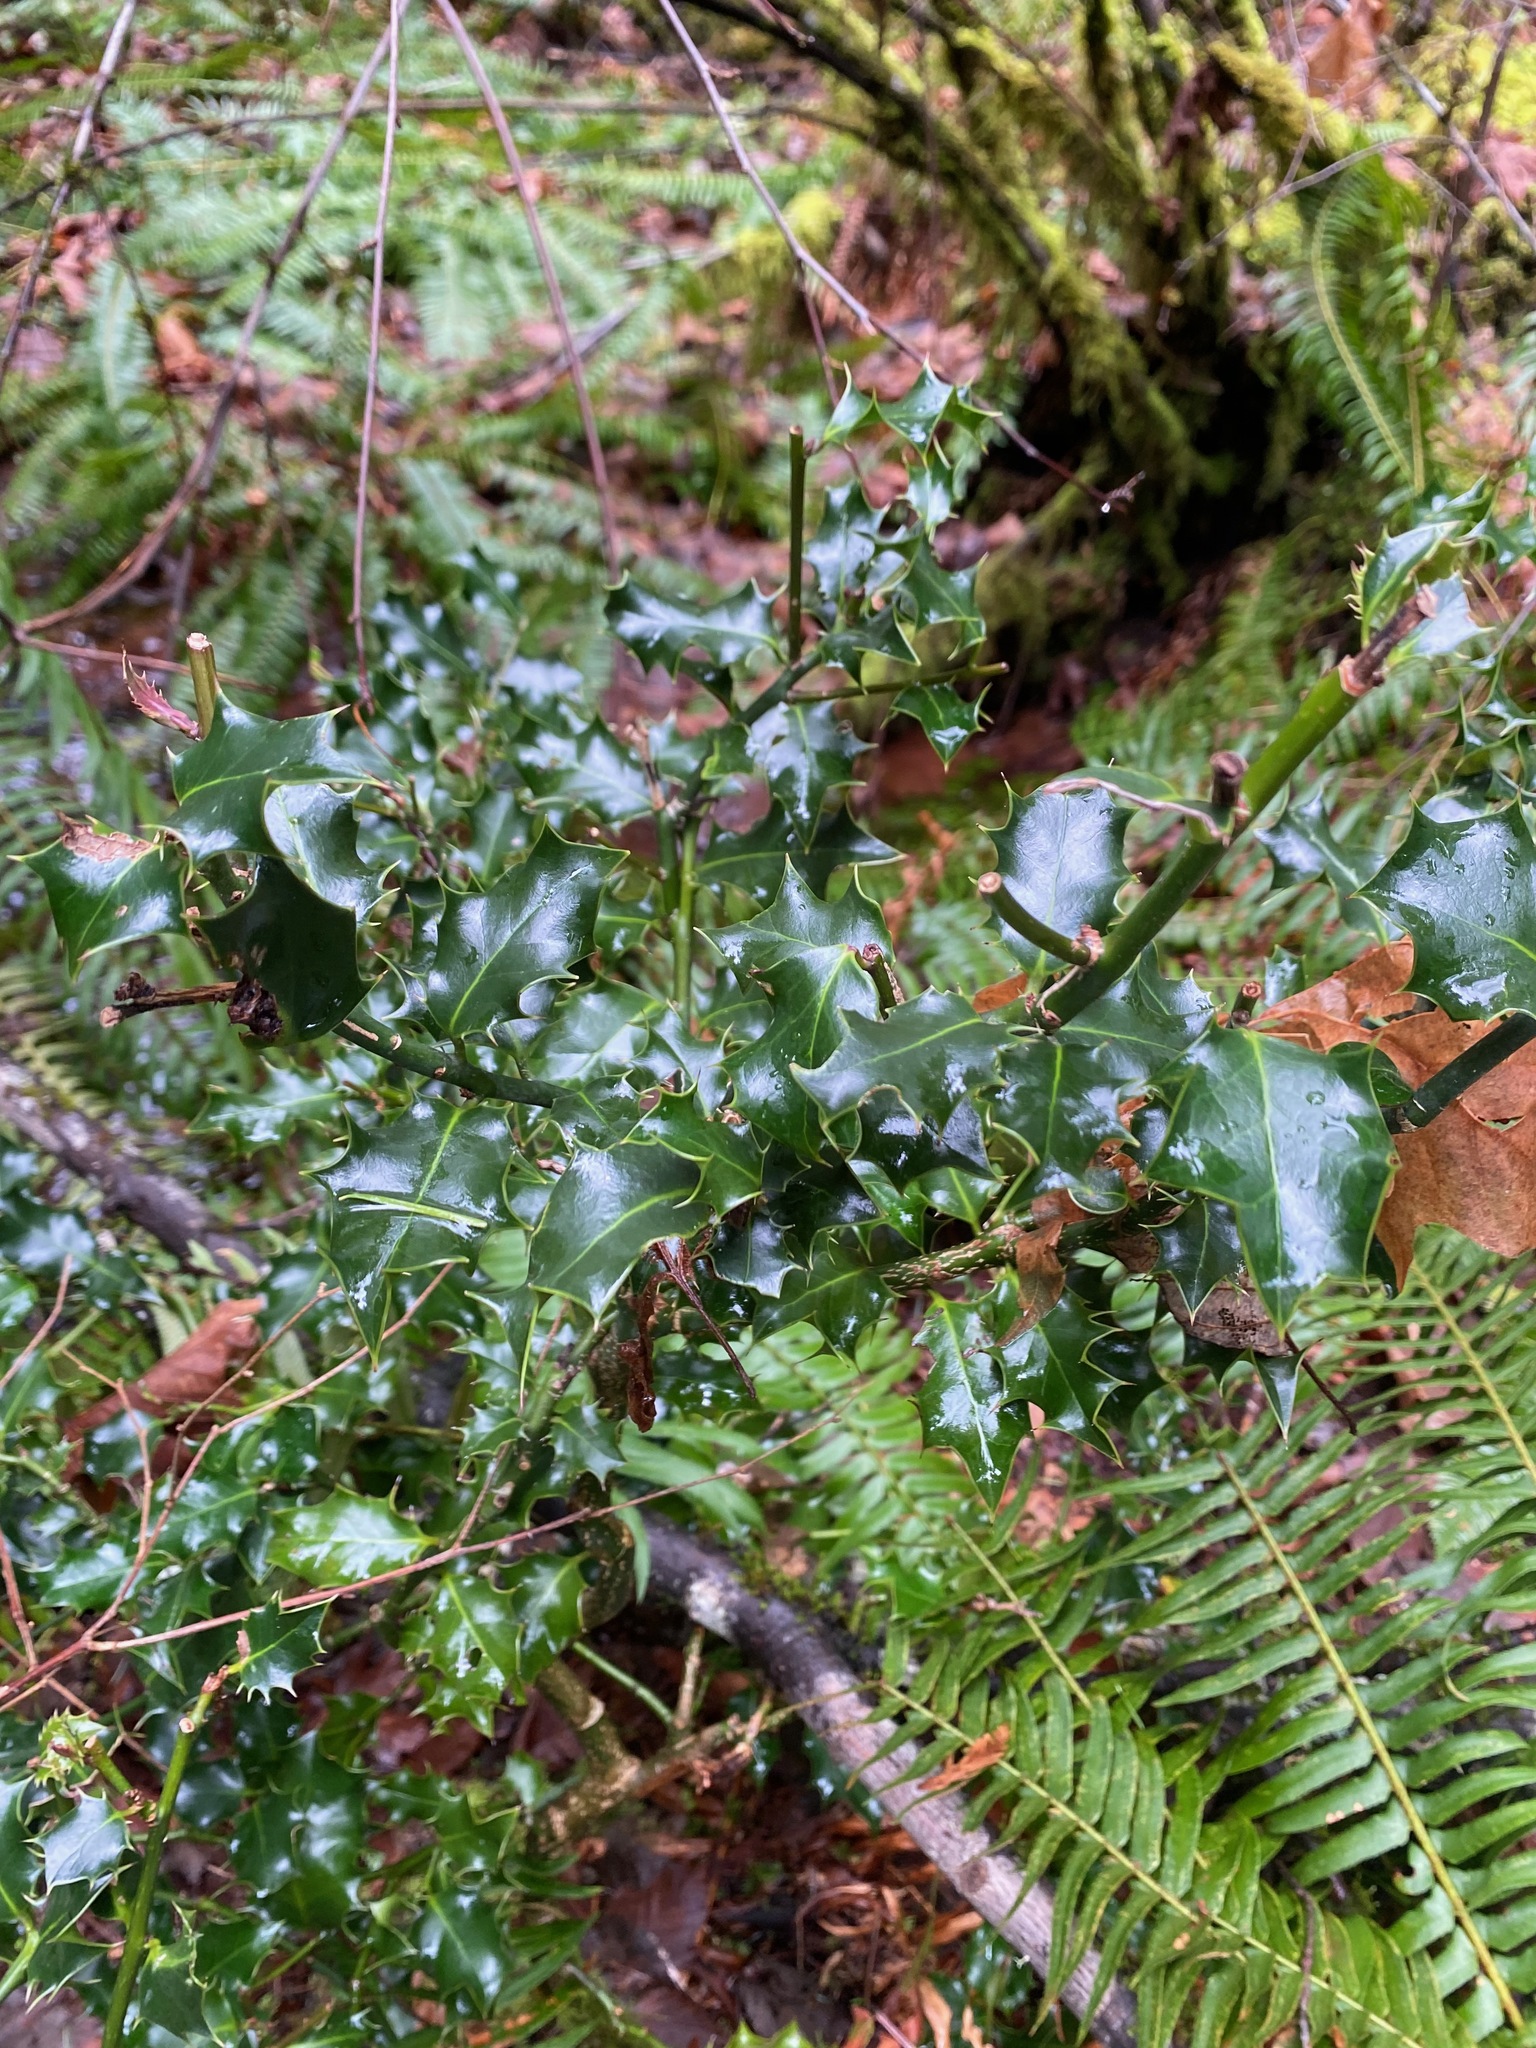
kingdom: Plantae
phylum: Tracheophyta
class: Magnoliopsida
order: Aquifoliales
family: Aquifoliaceae
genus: Ilex
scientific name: Ilex aquifolium
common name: English holly
